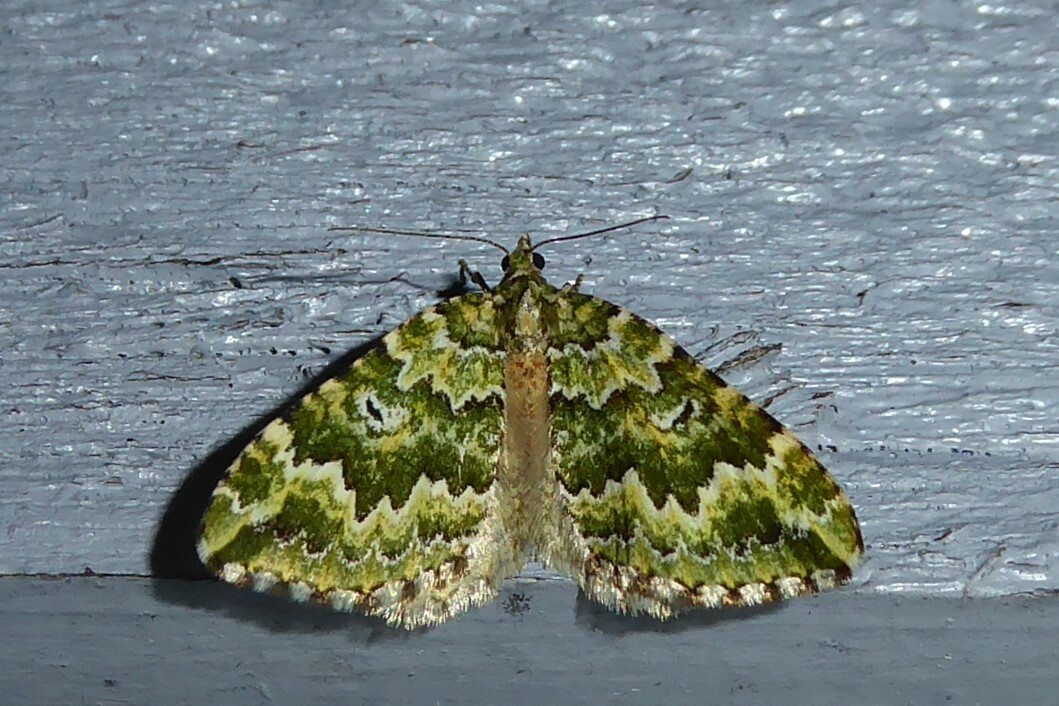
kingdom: Animalia
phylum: Arthropoda
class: Insecta
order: Lepidoptera
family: Geometridae
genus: Asaphodes
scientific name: Asaphodes beata
